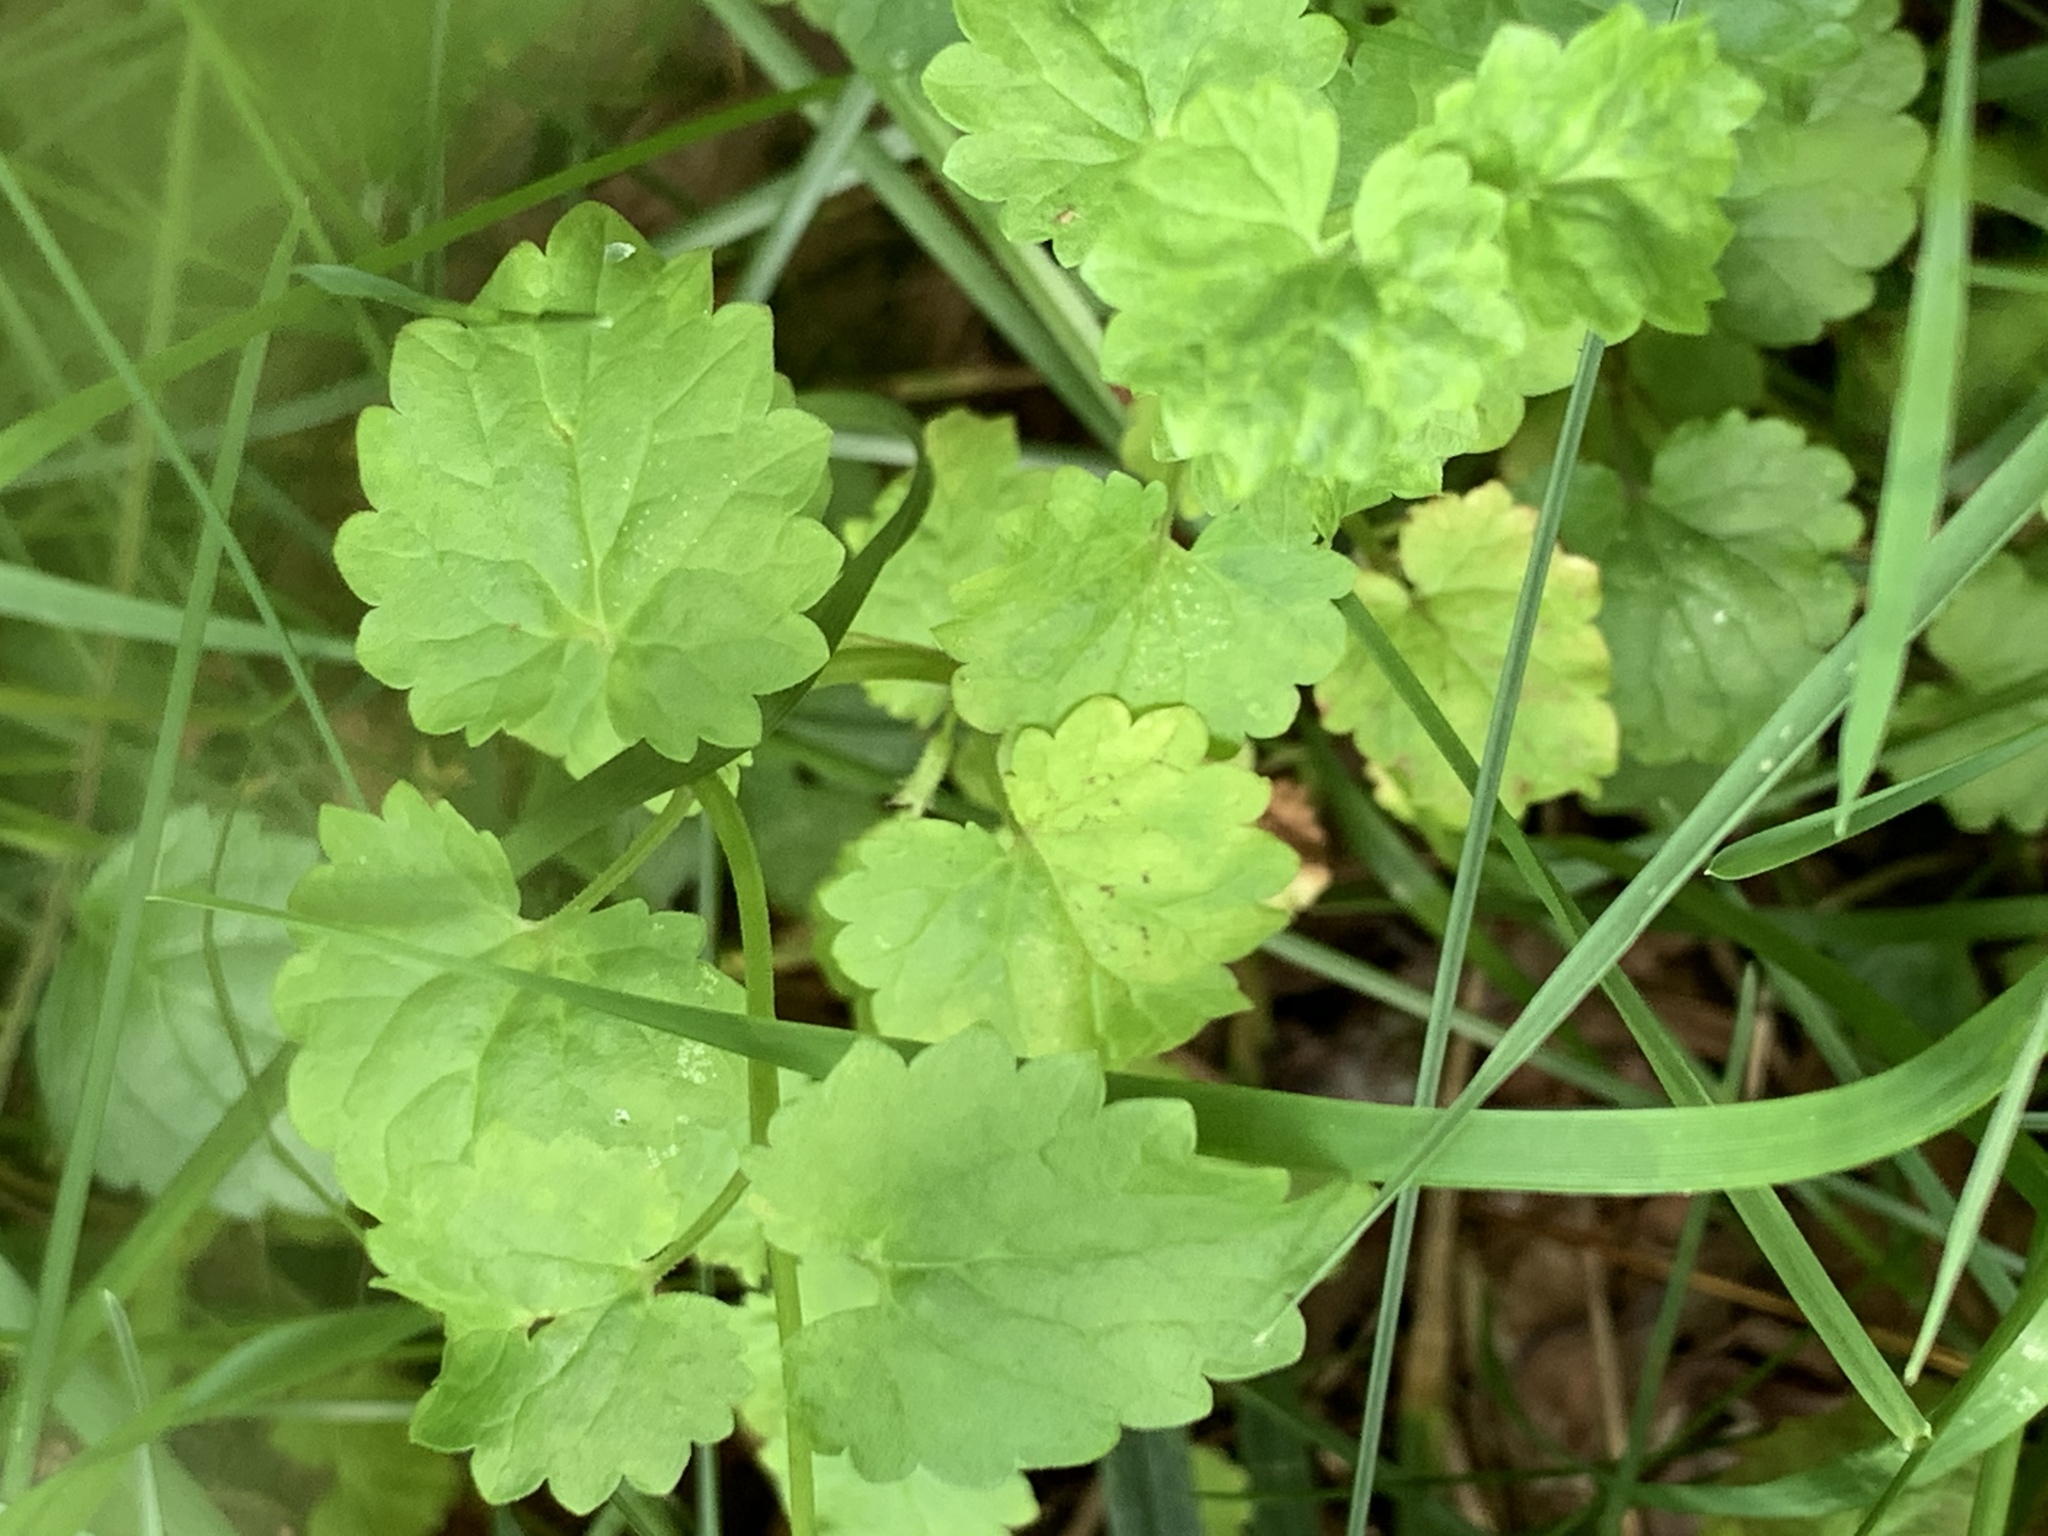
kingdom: Plantae
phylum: Tracheophyta
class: Magnoliopsida
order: Lamiales
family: Lamiaceae
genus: Glechoma
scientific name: Glechoma hederacea
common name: Ground ivy
